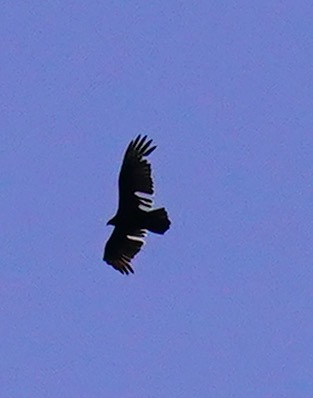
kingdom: Animalia
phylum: Chordata
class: Aves
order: Accipitriformes
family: Cathartidae
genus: Cathartes
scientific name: Cathartes aura
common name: Turkey vulture
